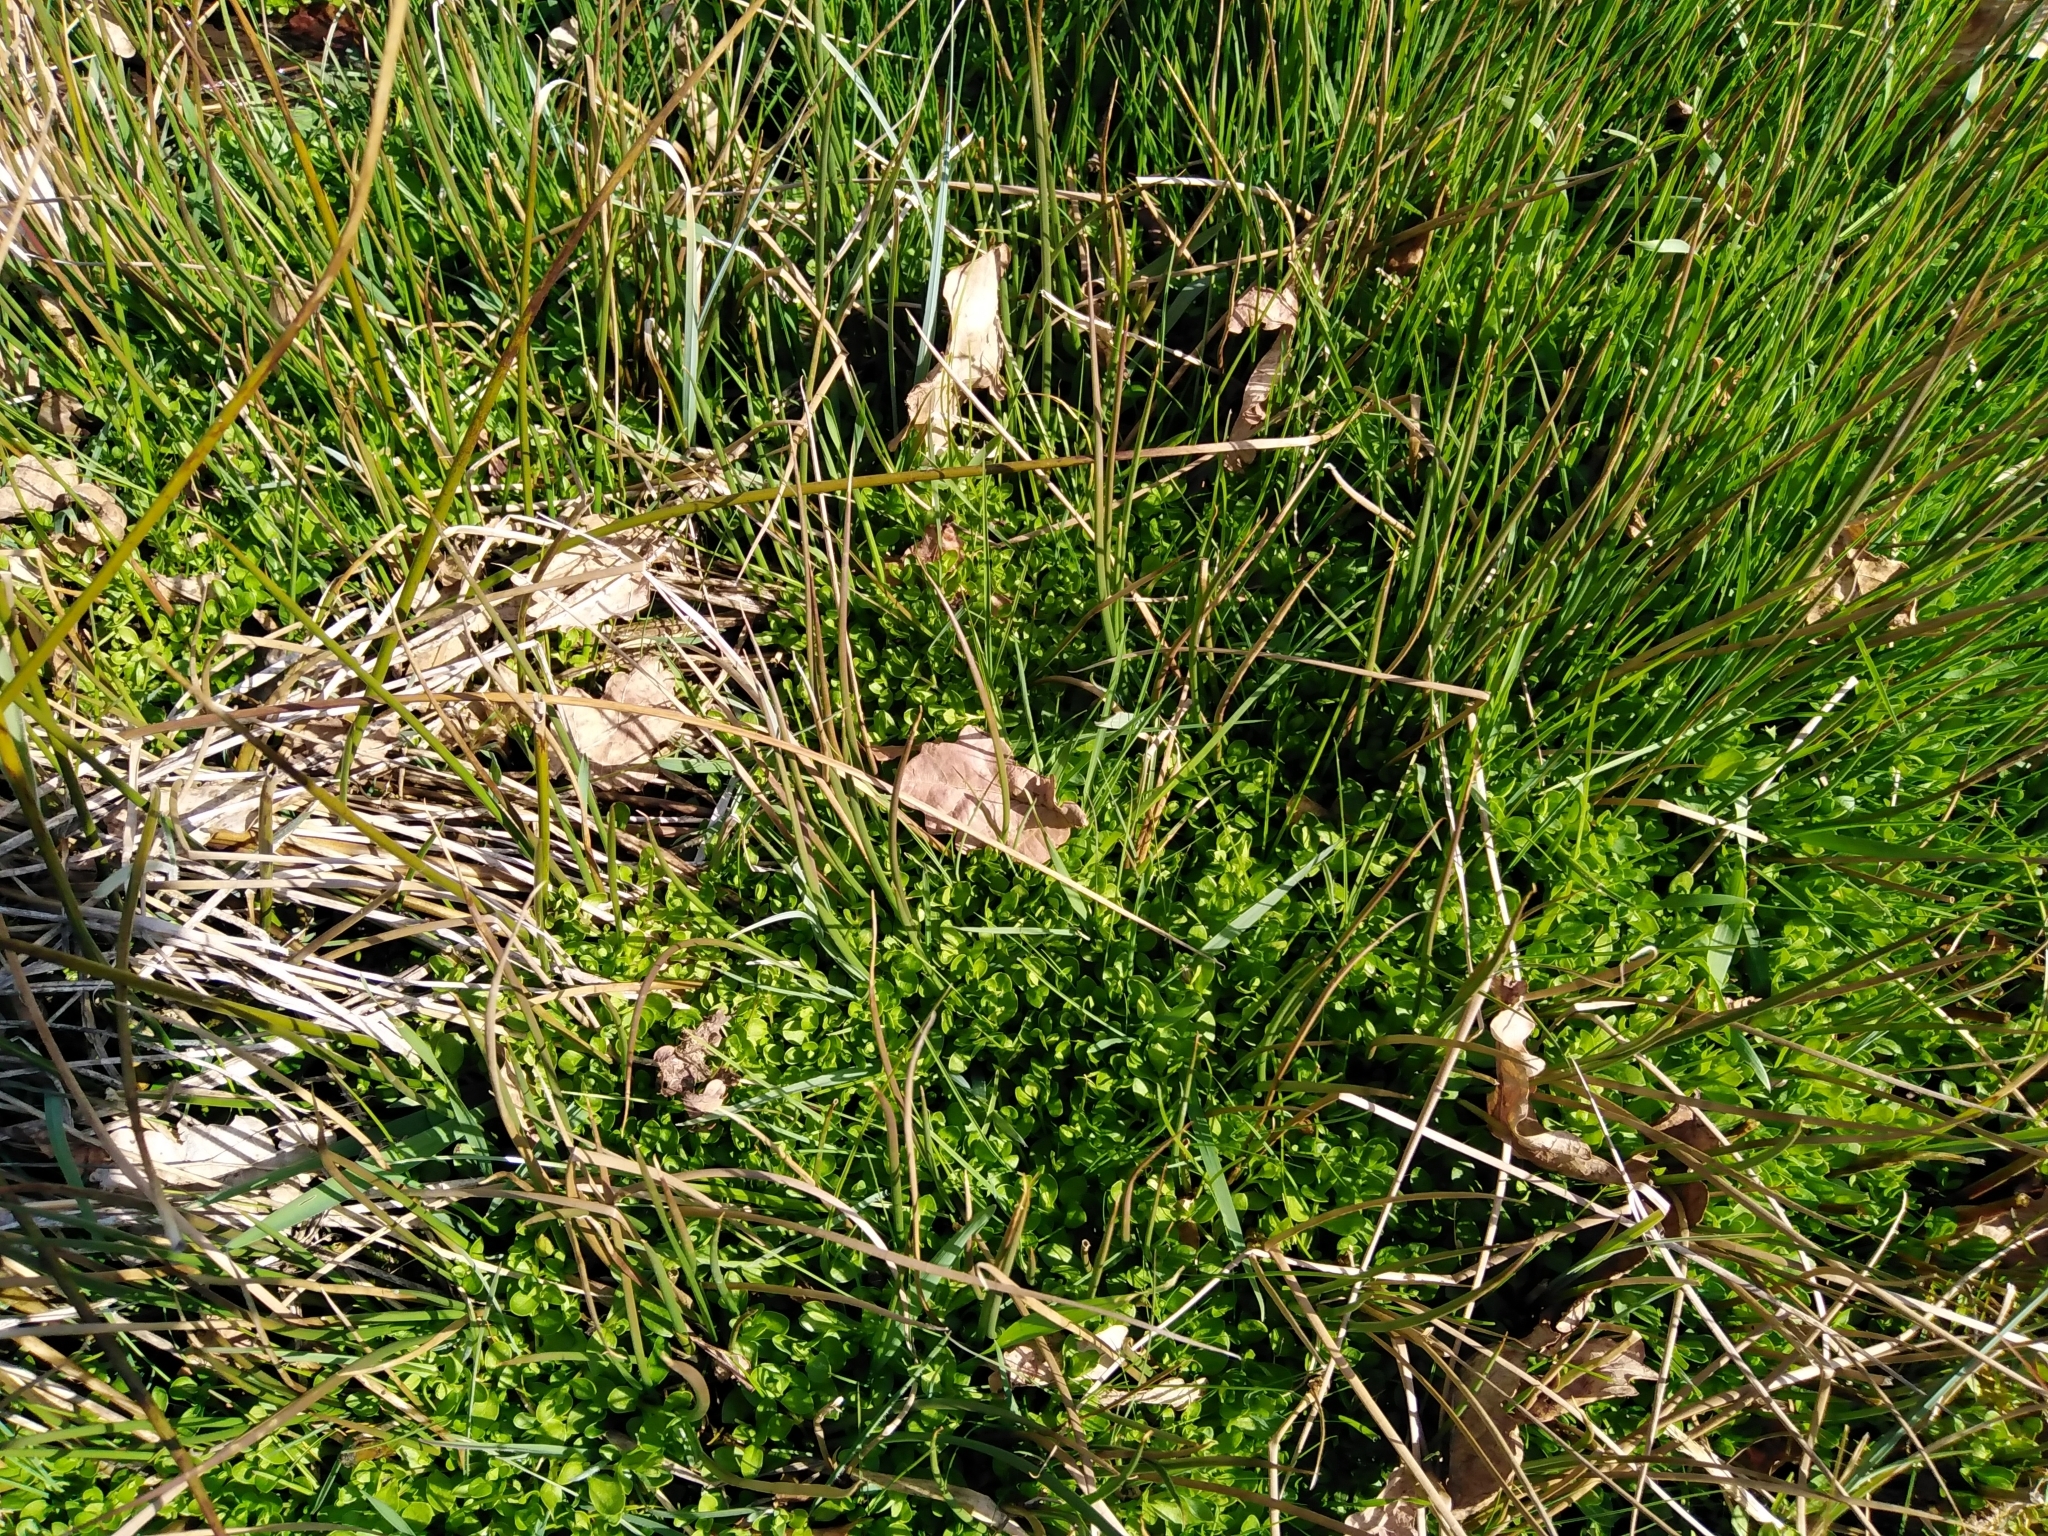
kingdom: Plantae
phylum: Tracheophyta
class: Magnoliopsida
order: Caryophyllales
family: Montiaceae
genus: Montia
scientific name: Montia fontana
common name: Blinks
